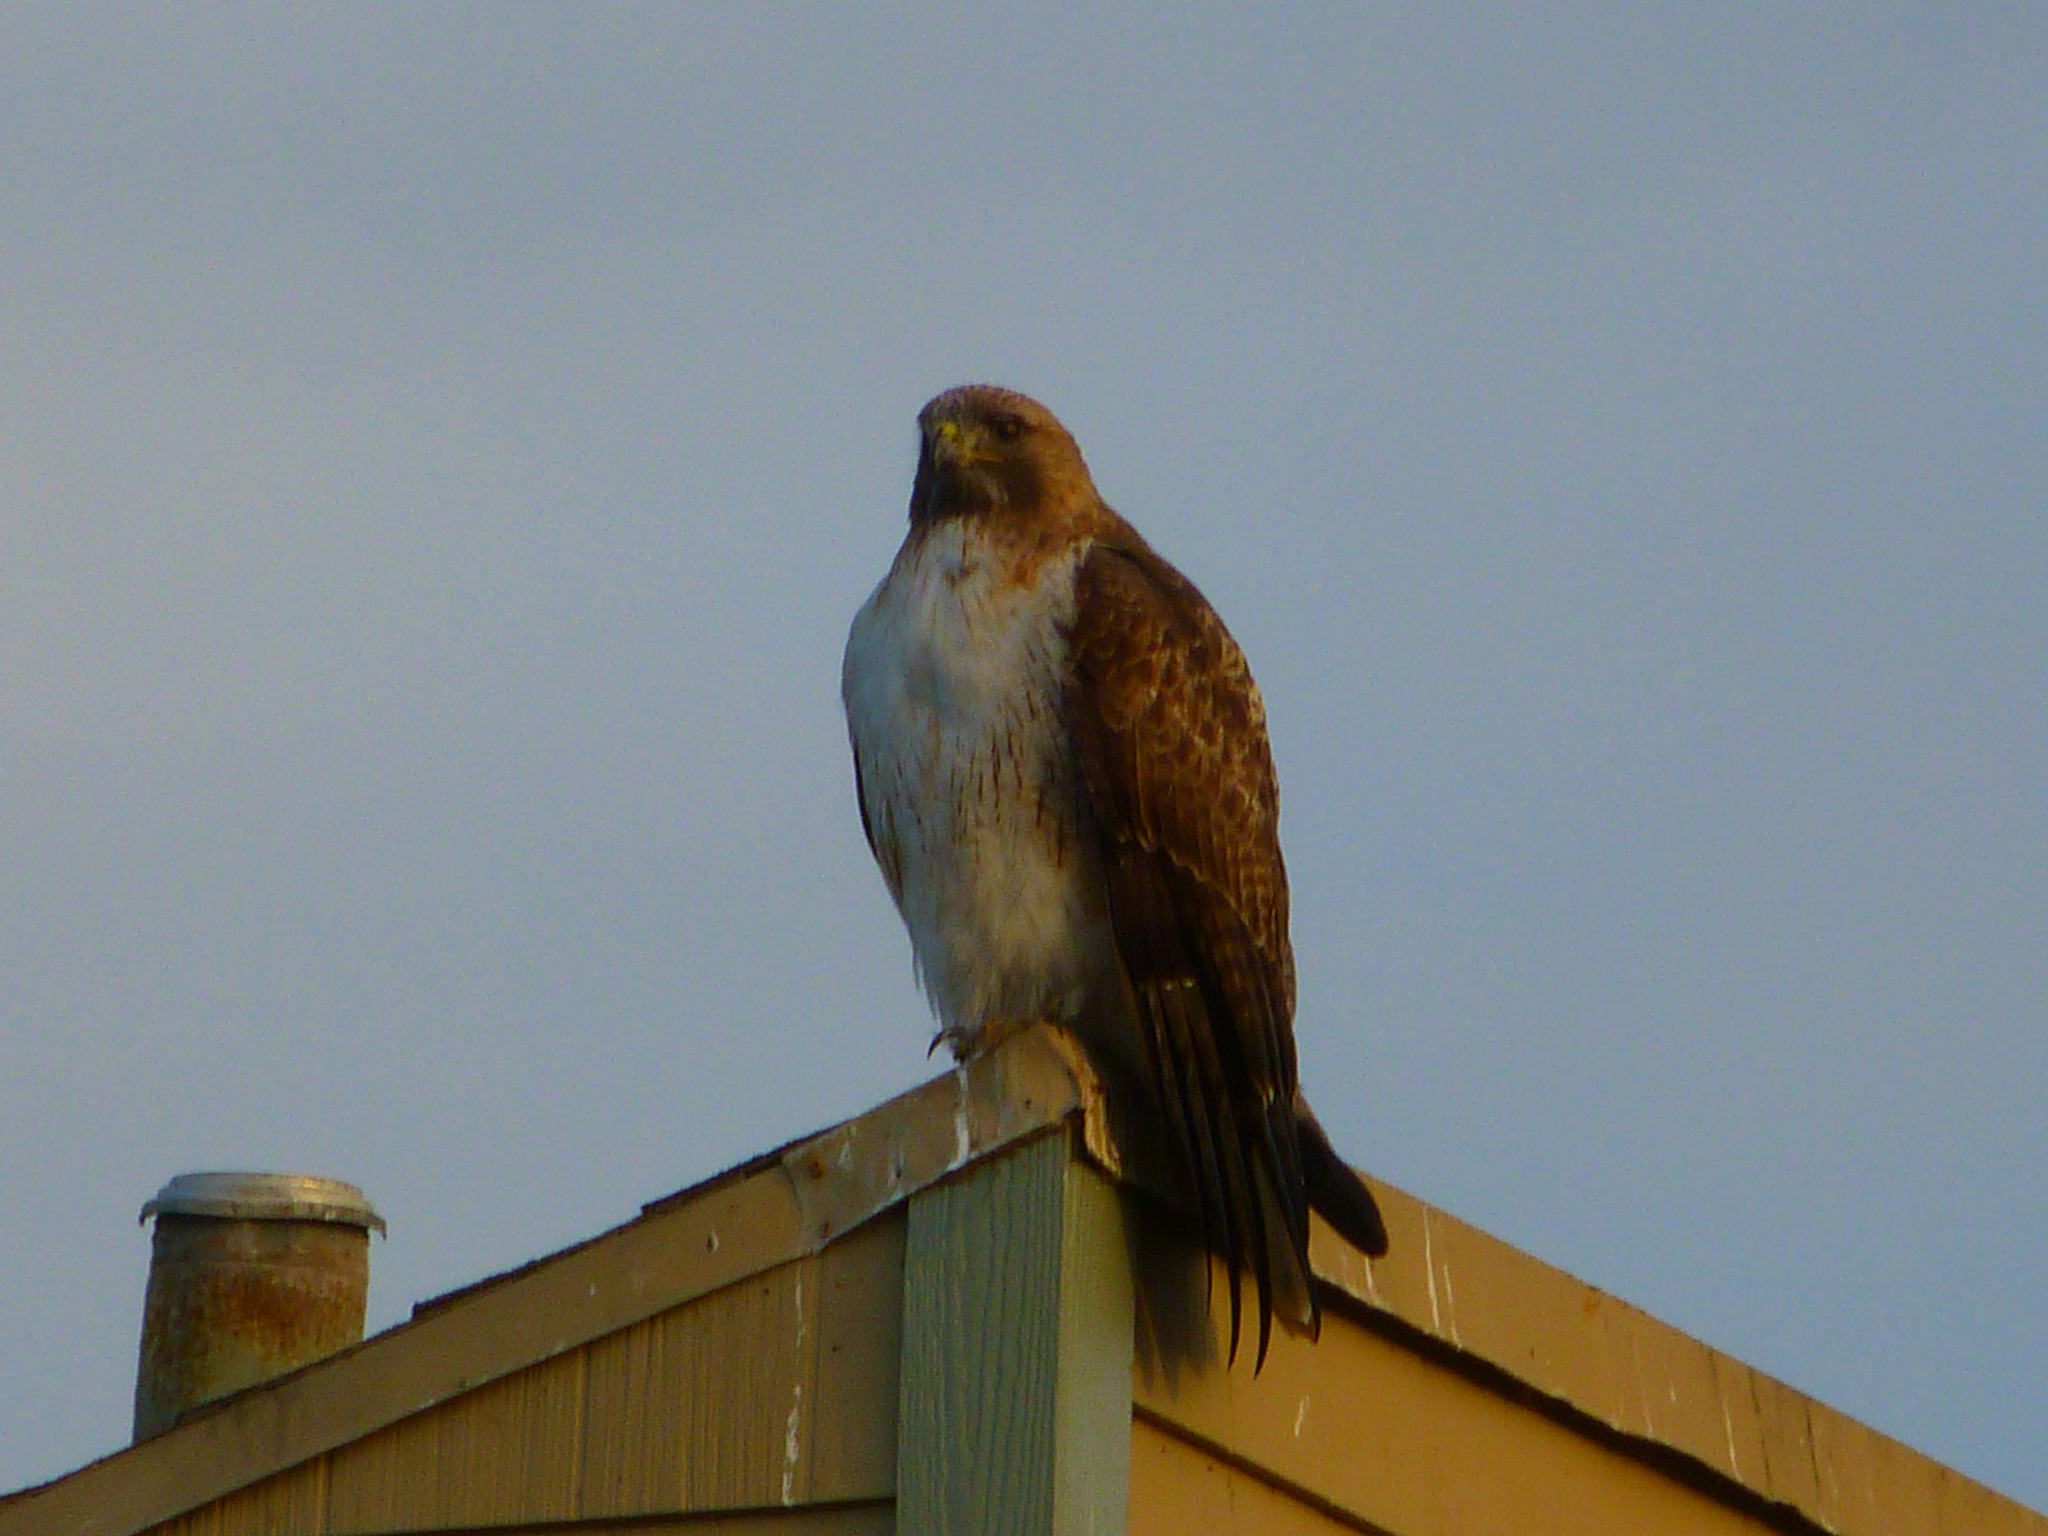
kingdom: Animalia
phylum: Chordata
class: Aves
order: Accipitriformes
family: Accipitridae
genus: Buteo
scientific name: Buteo jamaicensis
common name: Red-tailed hawk
